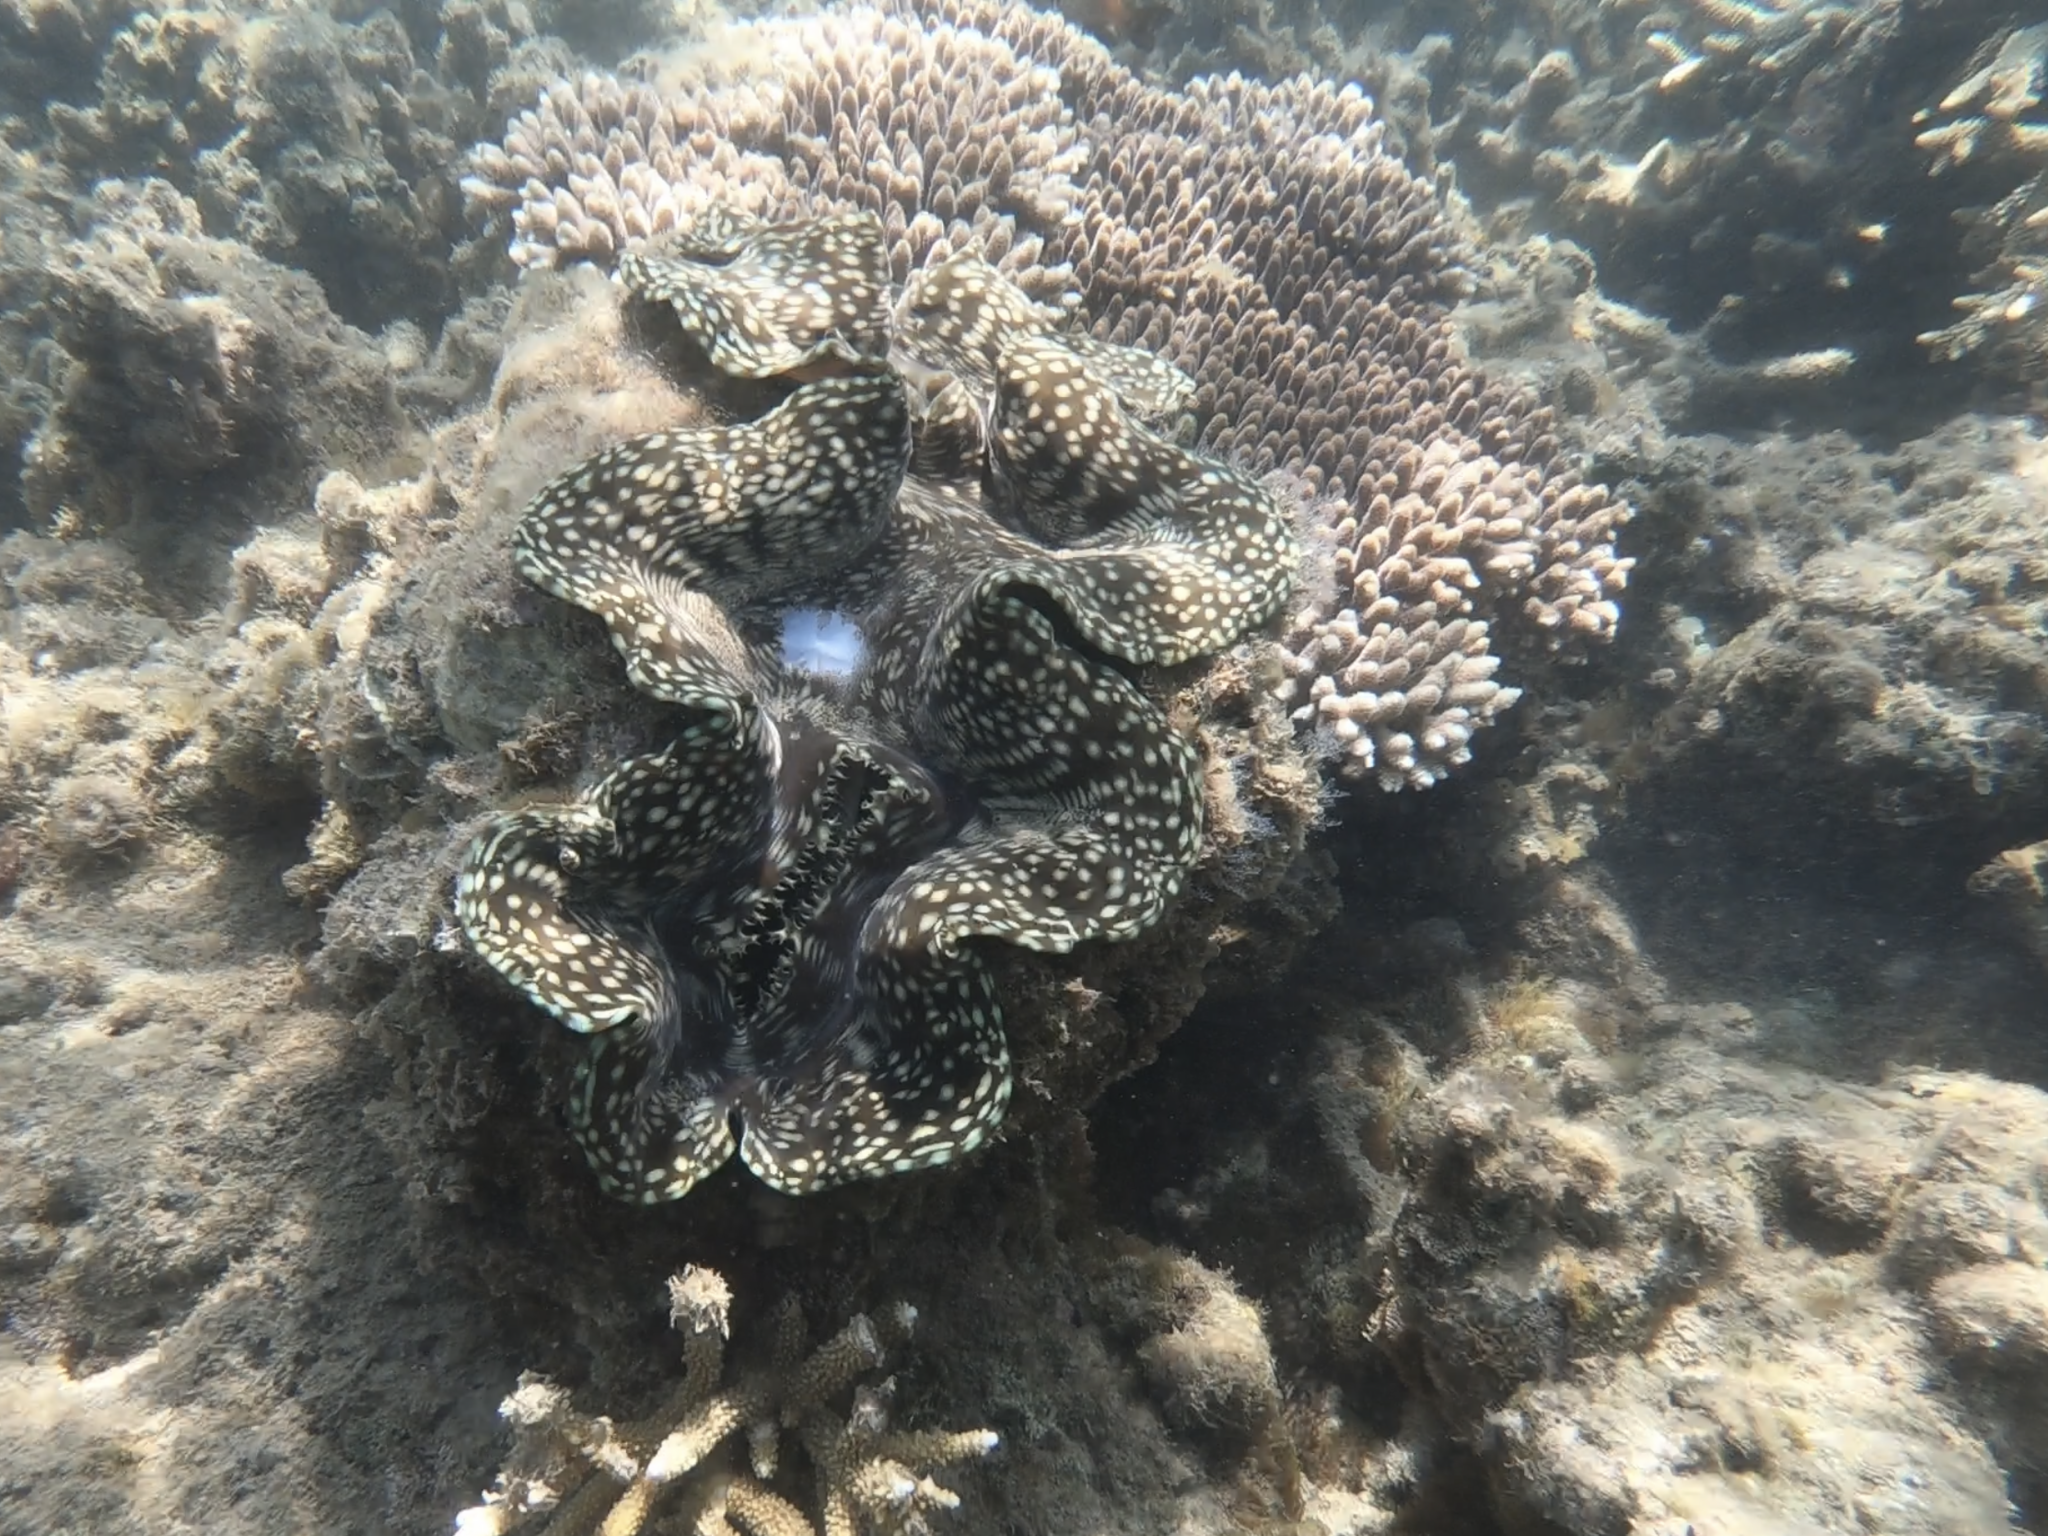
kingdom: Animalia
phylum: Mollusca
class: Bivalvia
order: Cardiida
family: Cardiidae
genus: Tridacna
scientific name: Tridacna squamosa
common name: Fluted clam
